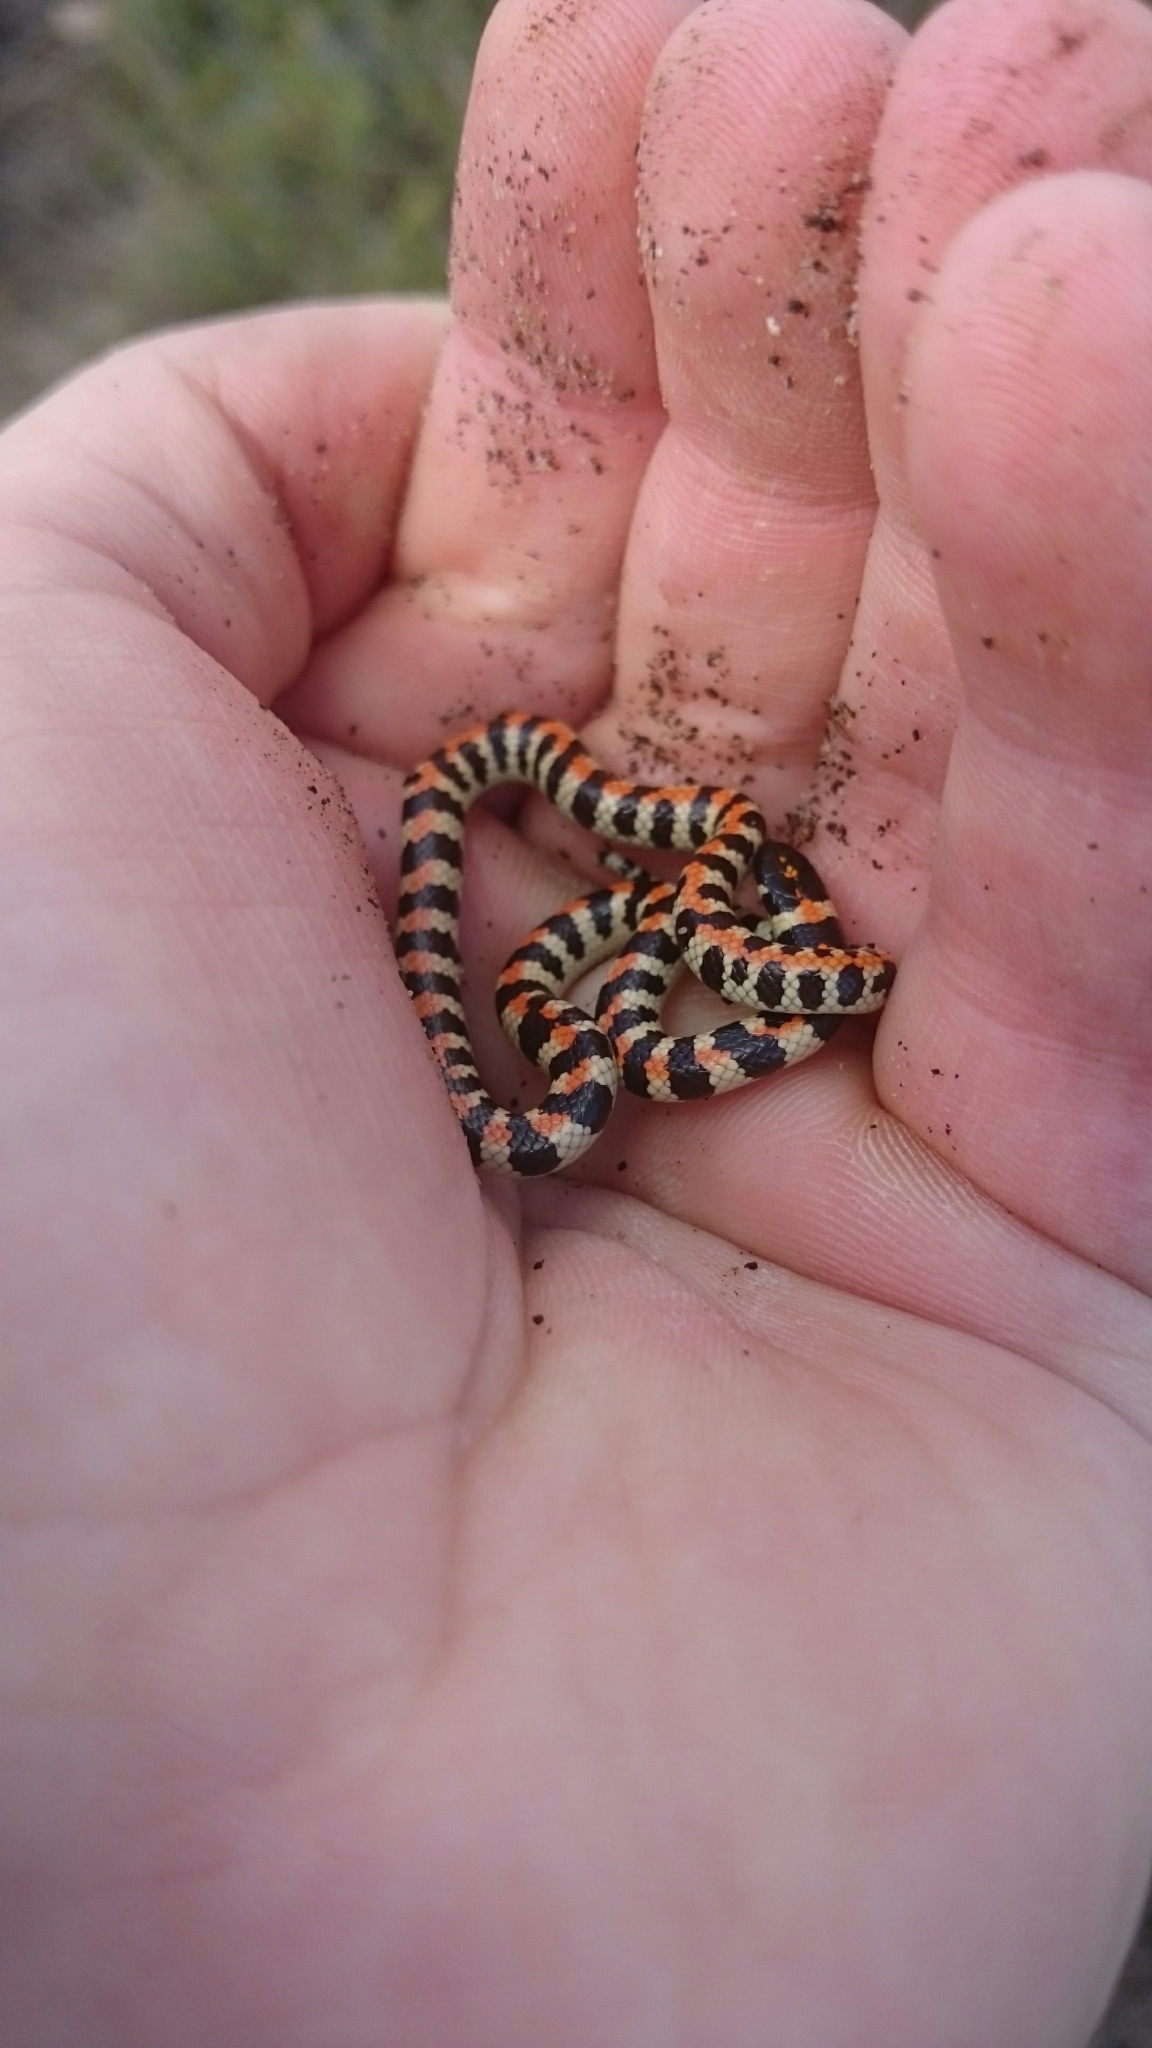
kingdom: Animalia
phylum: Chordata
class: Squamata
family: Atractaspididae
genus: Homoroselaps
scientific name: Homoroselaps lacteus
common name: Spotted harlequin snake
